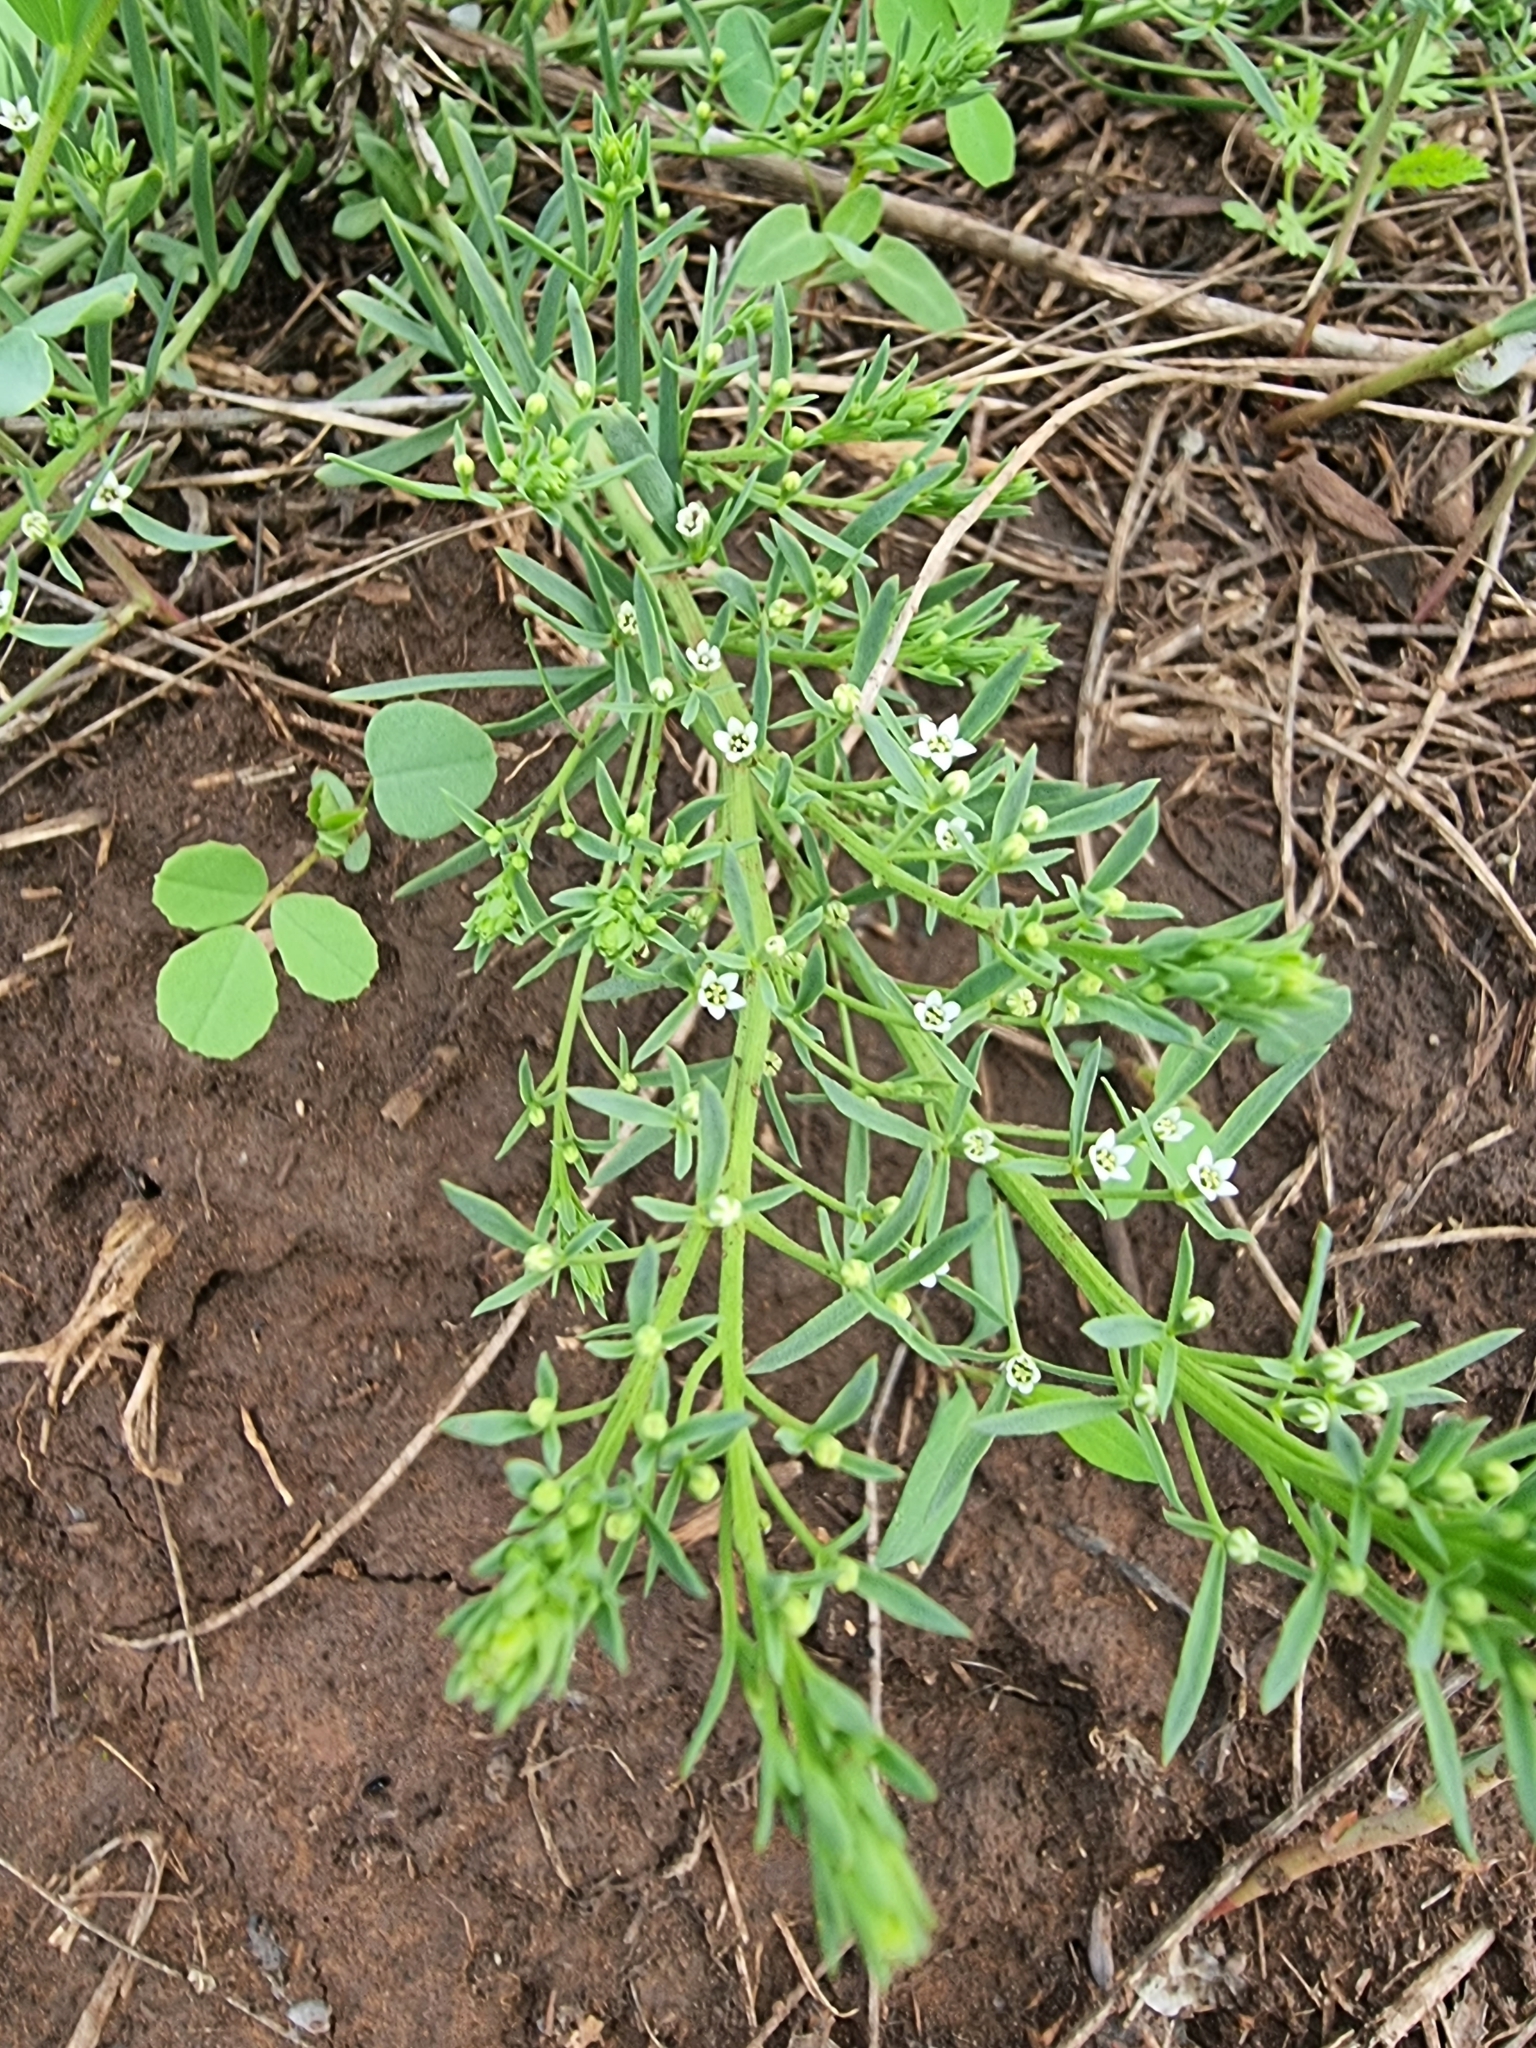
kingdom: Plantae
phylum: Tracheophyta
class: Magnoliopsida
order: Santalales
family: Thesiaceae
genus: Thesium
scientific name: Thesium ramosum
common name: Field thesium
